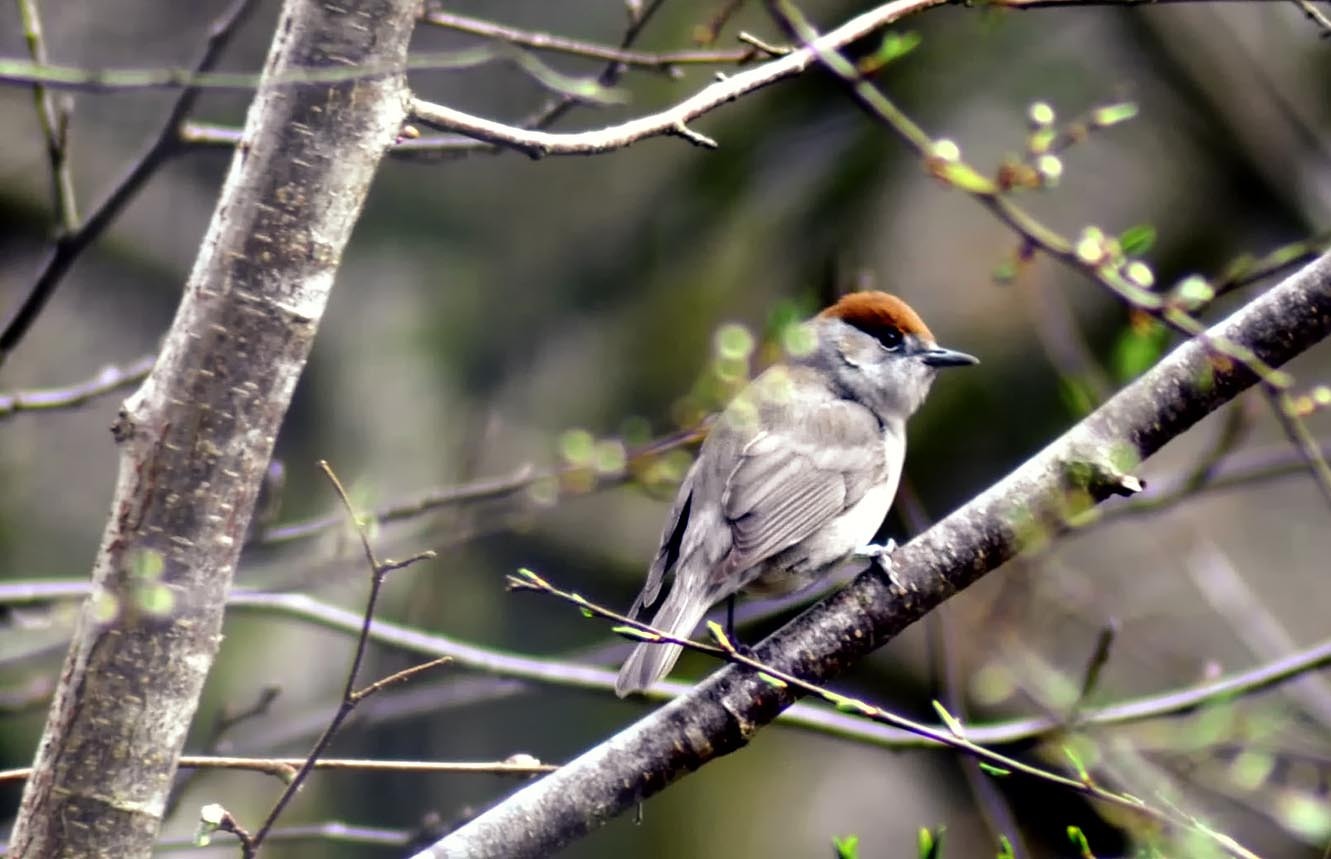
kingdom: Animalia
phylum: Chordata
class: Aves
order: Passeriformes
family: Sylviidae
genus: Sylvia
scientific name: Sylvia atricapilla
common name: Eurasian blackcap
